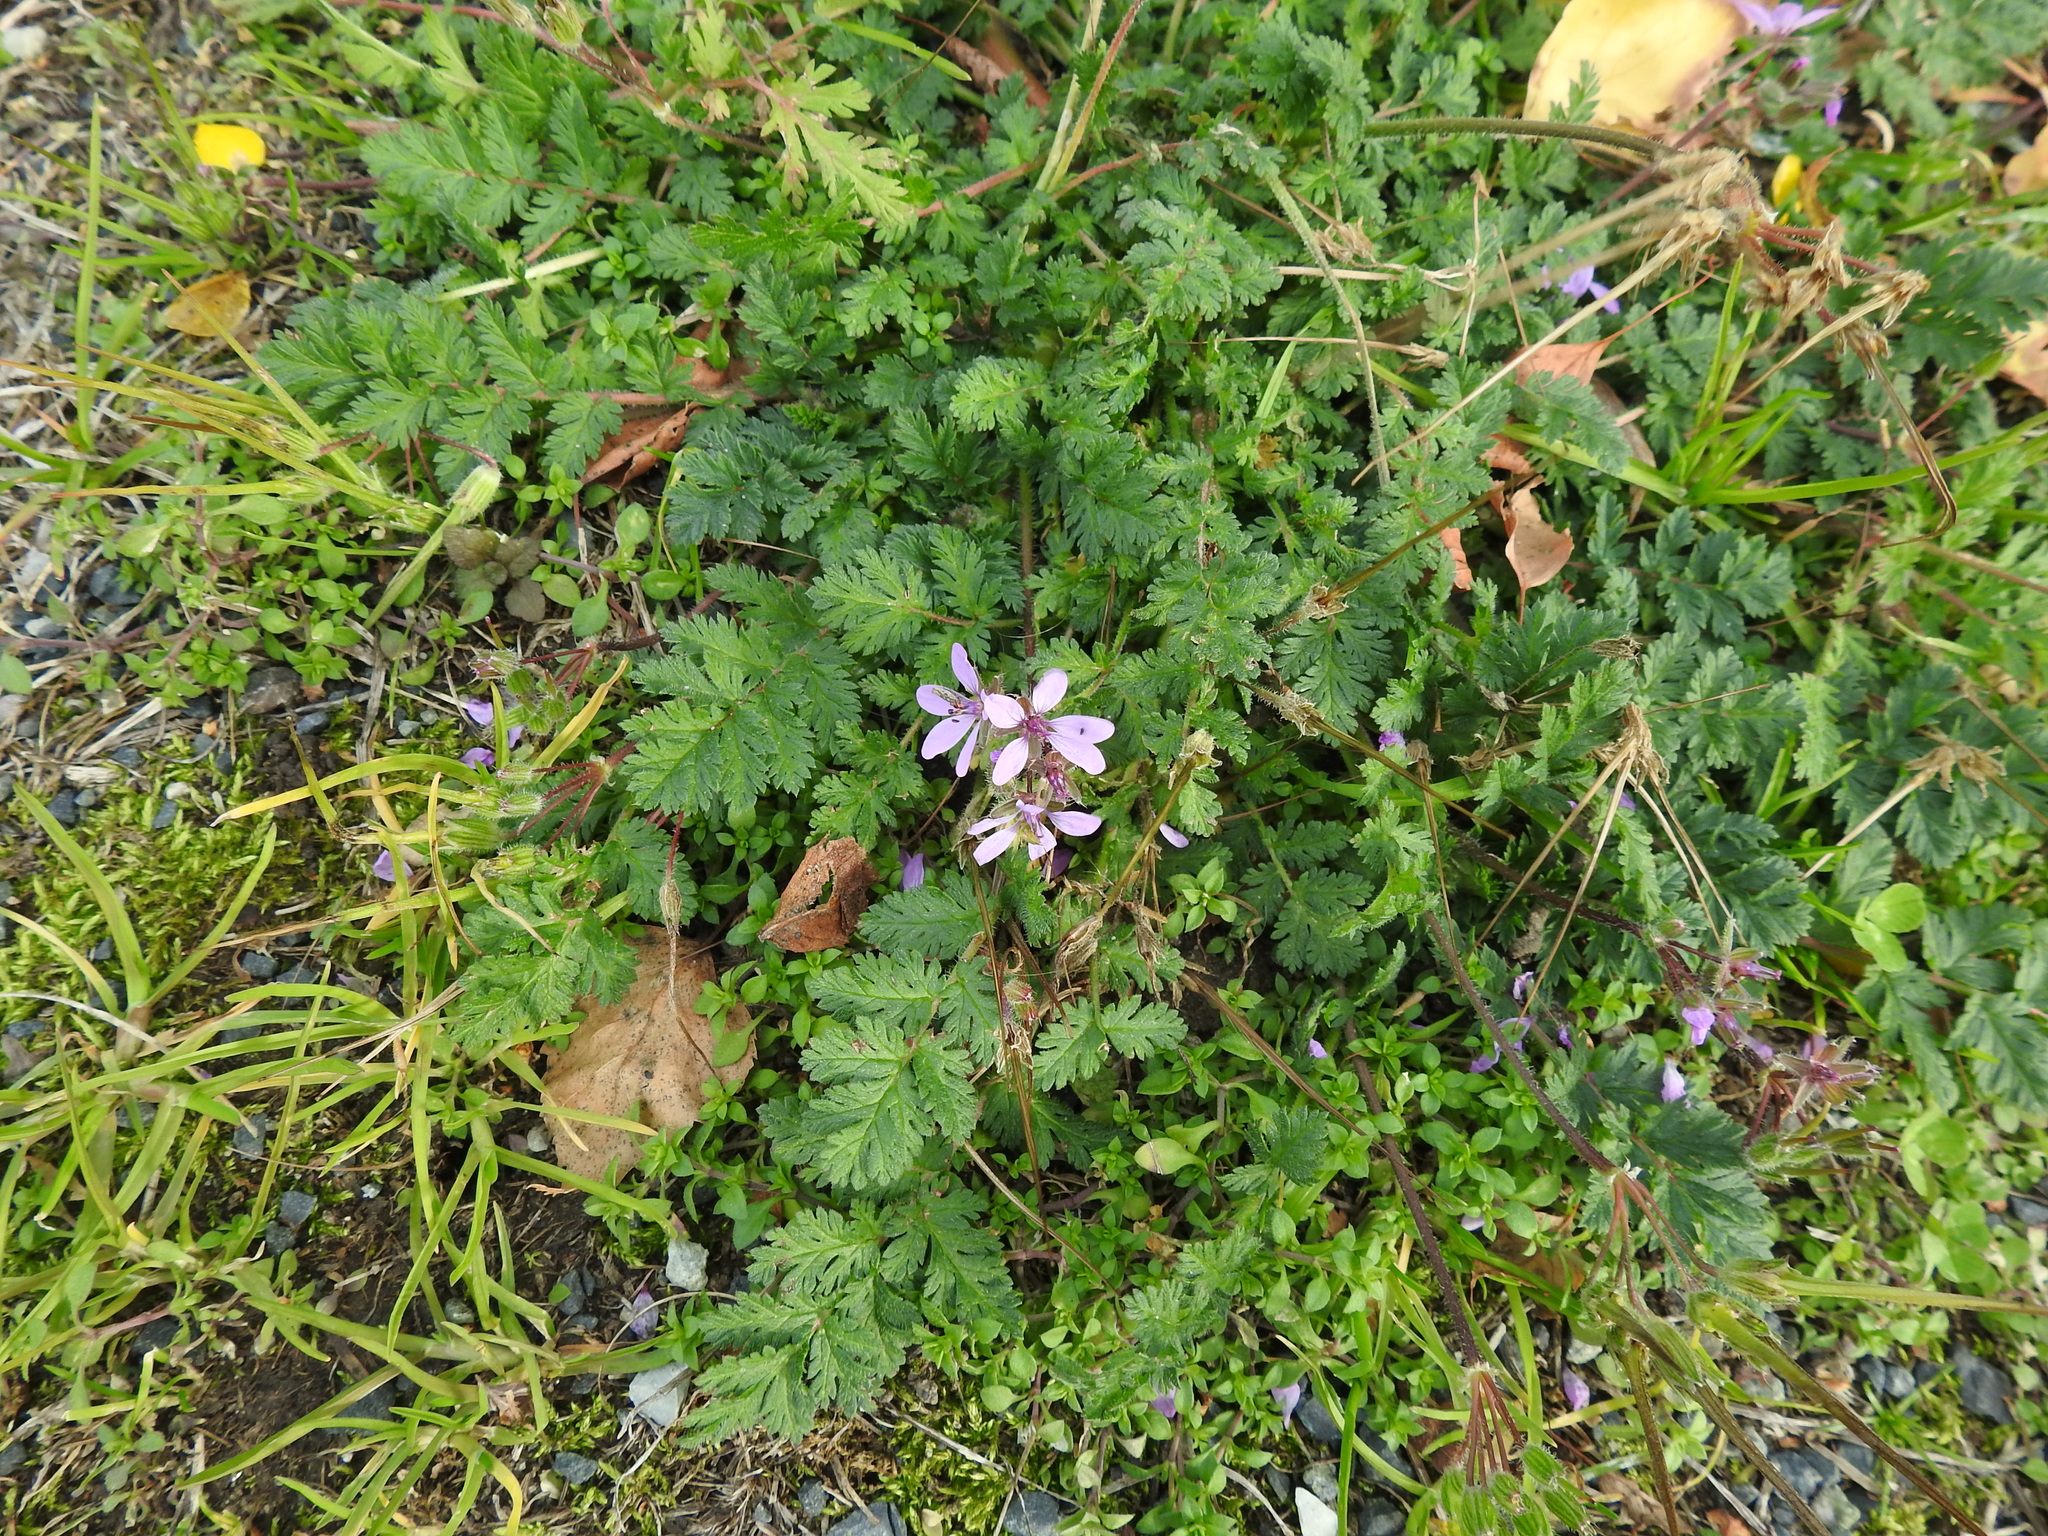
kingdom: Plantae
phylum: Tracheophyta
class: Magnoliopsida
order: Geraniales
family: Geraniaceae
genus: Erodium
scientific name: Erodium cicutarium
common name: Common stork's-bill
